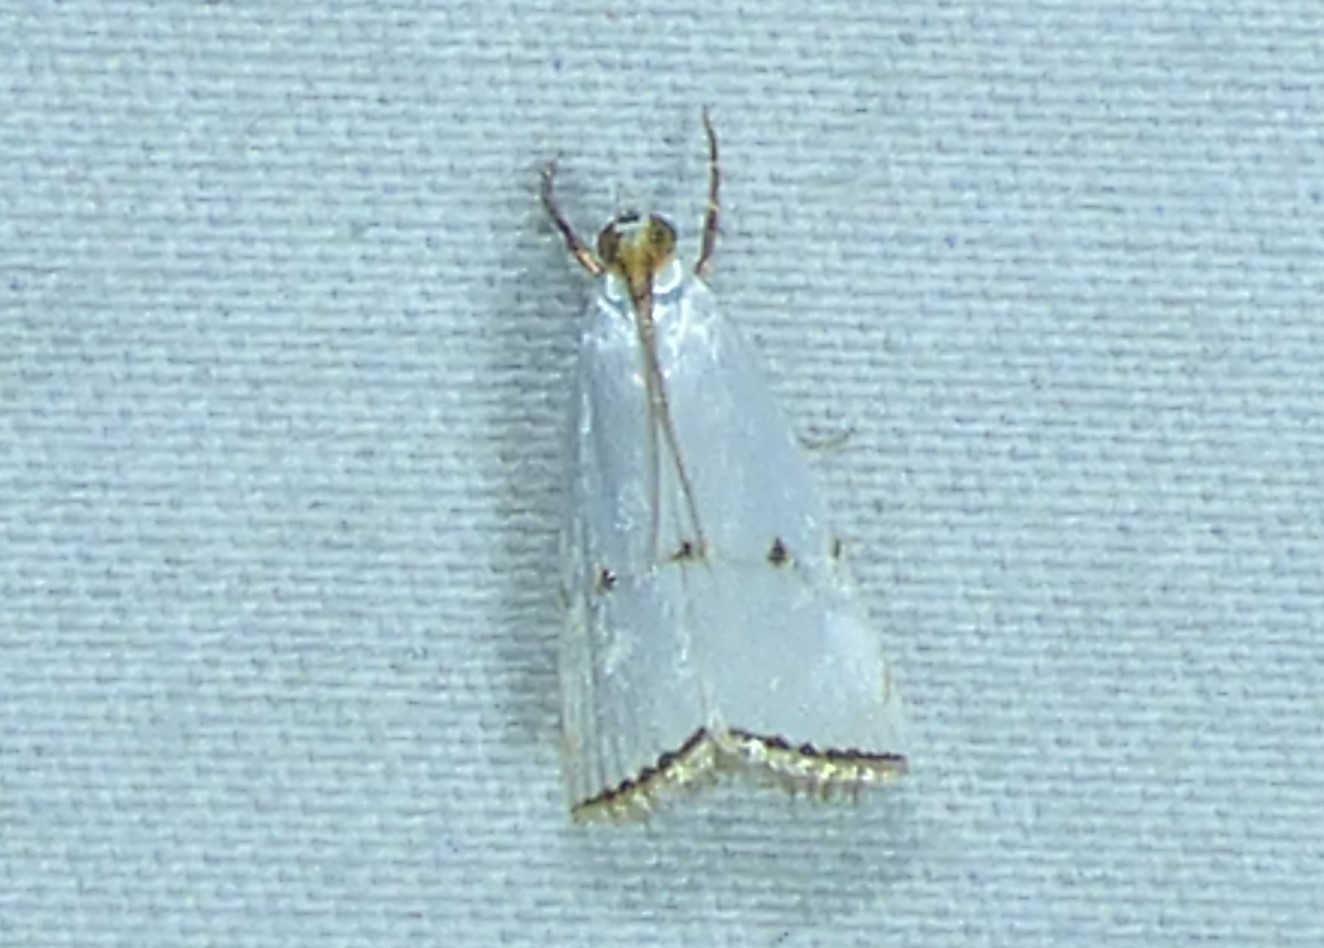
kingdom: Animalia
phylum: Arthropoda
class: Insecta
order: Lepidoptera
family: Crambidae
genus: Argyria
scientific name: Argyria pusillalis
